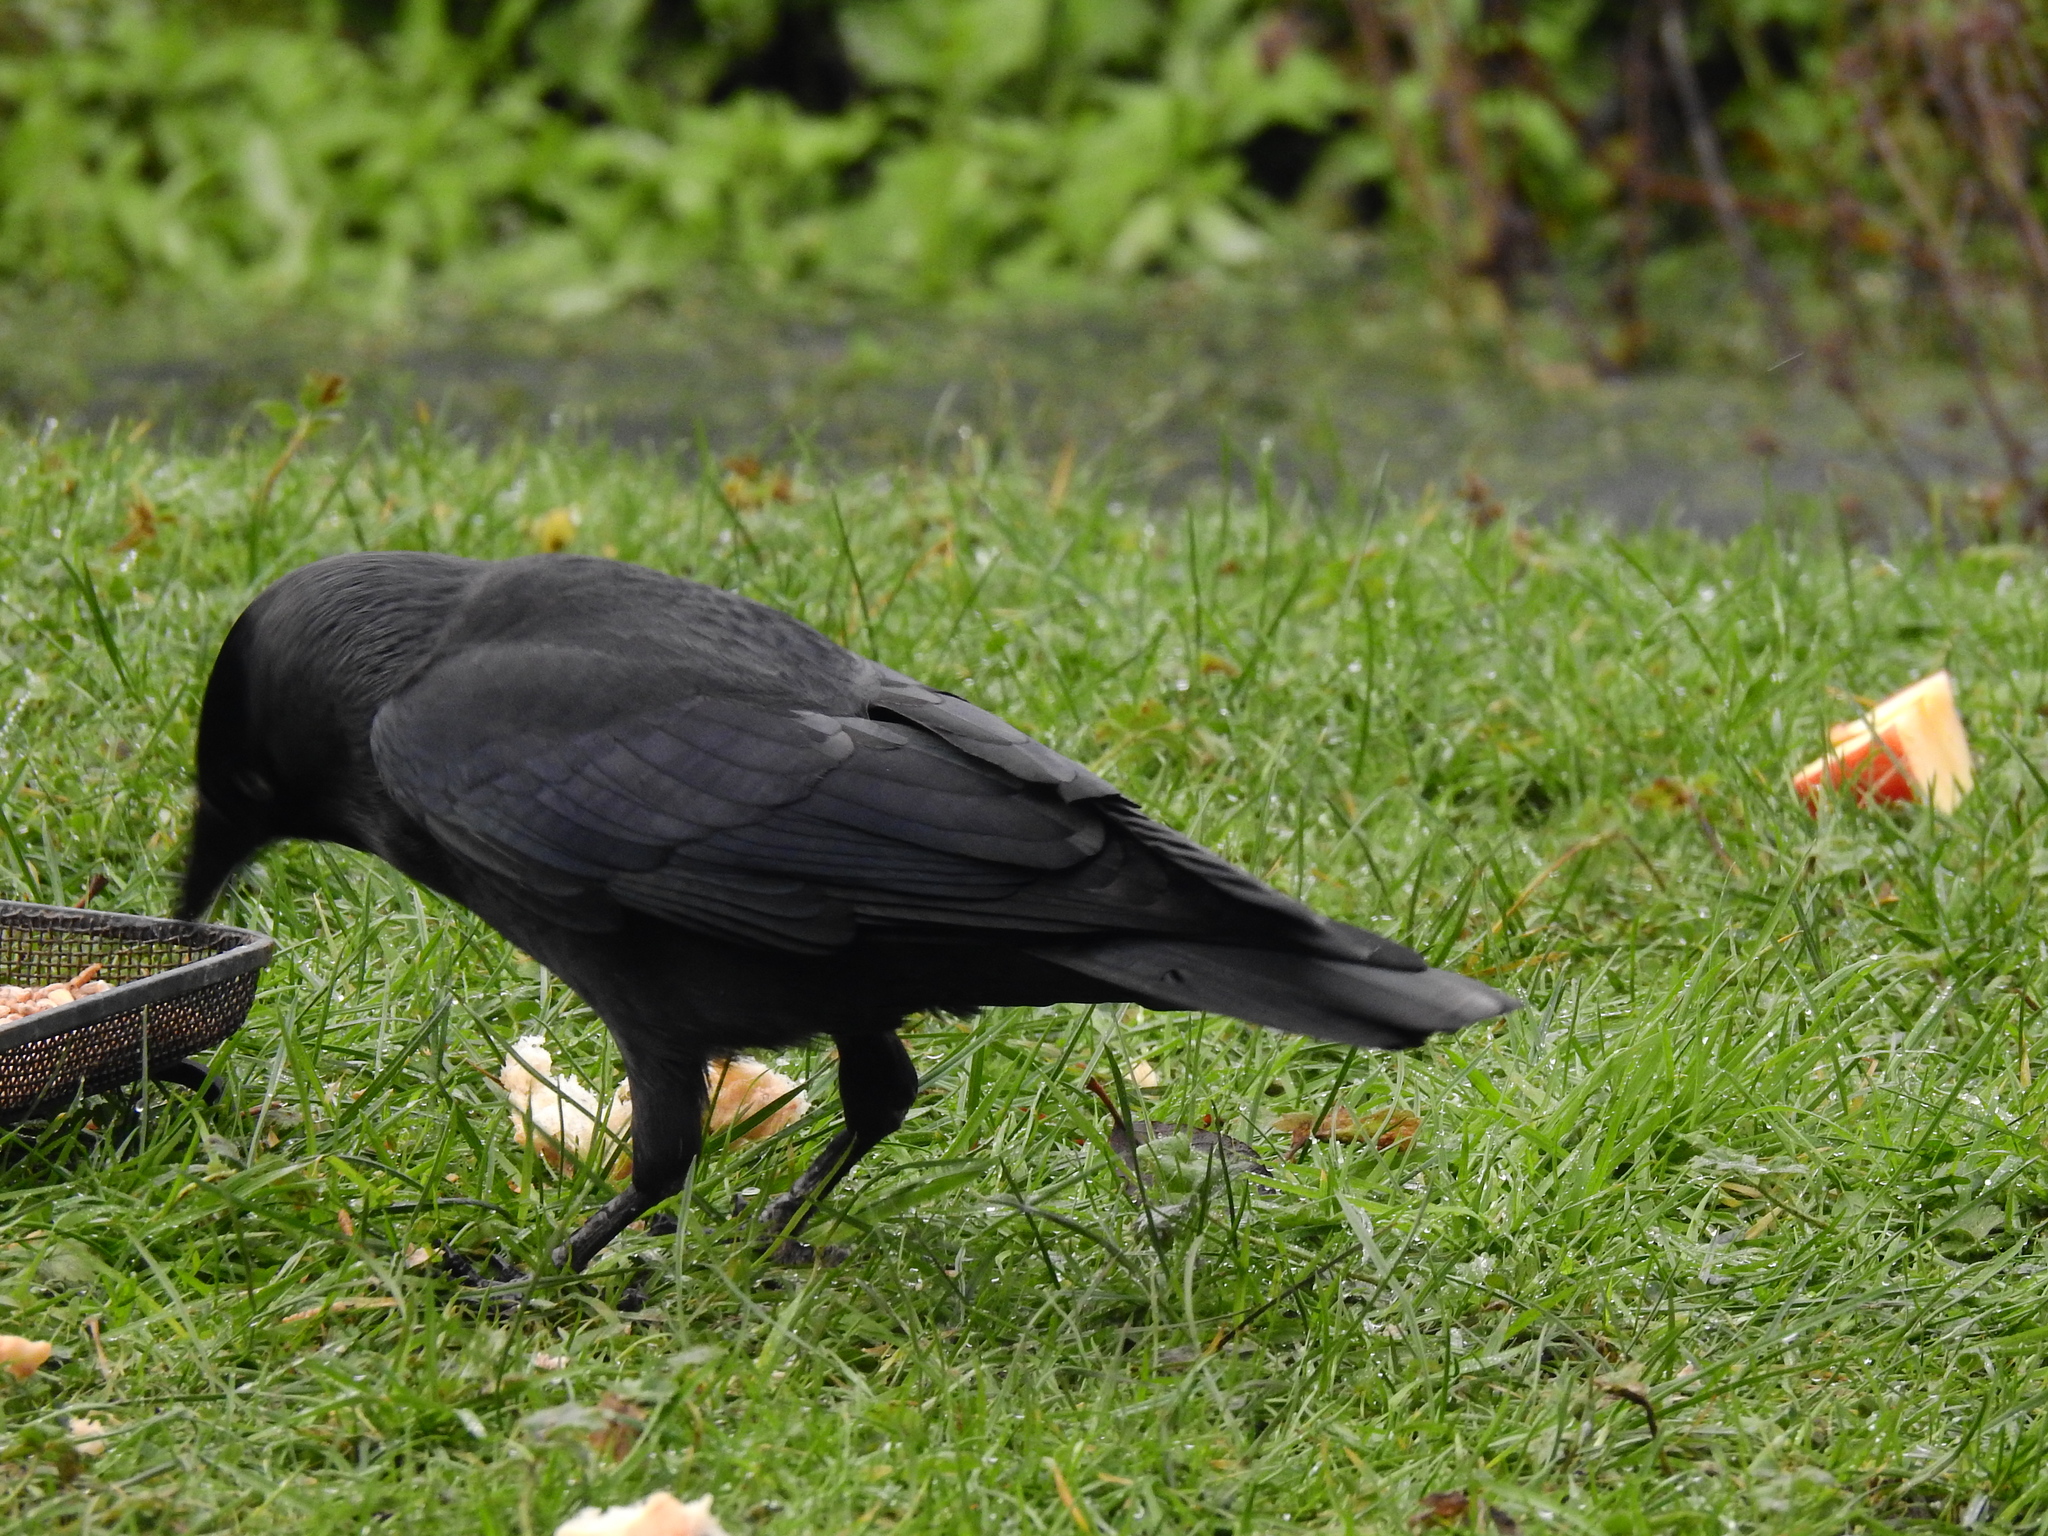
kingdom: Animalia
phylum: Chordata
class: Aves
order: Passeriformes
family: Corvidae
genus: Coloeus
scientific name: Coloeus monedula
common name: Western jackdaw
